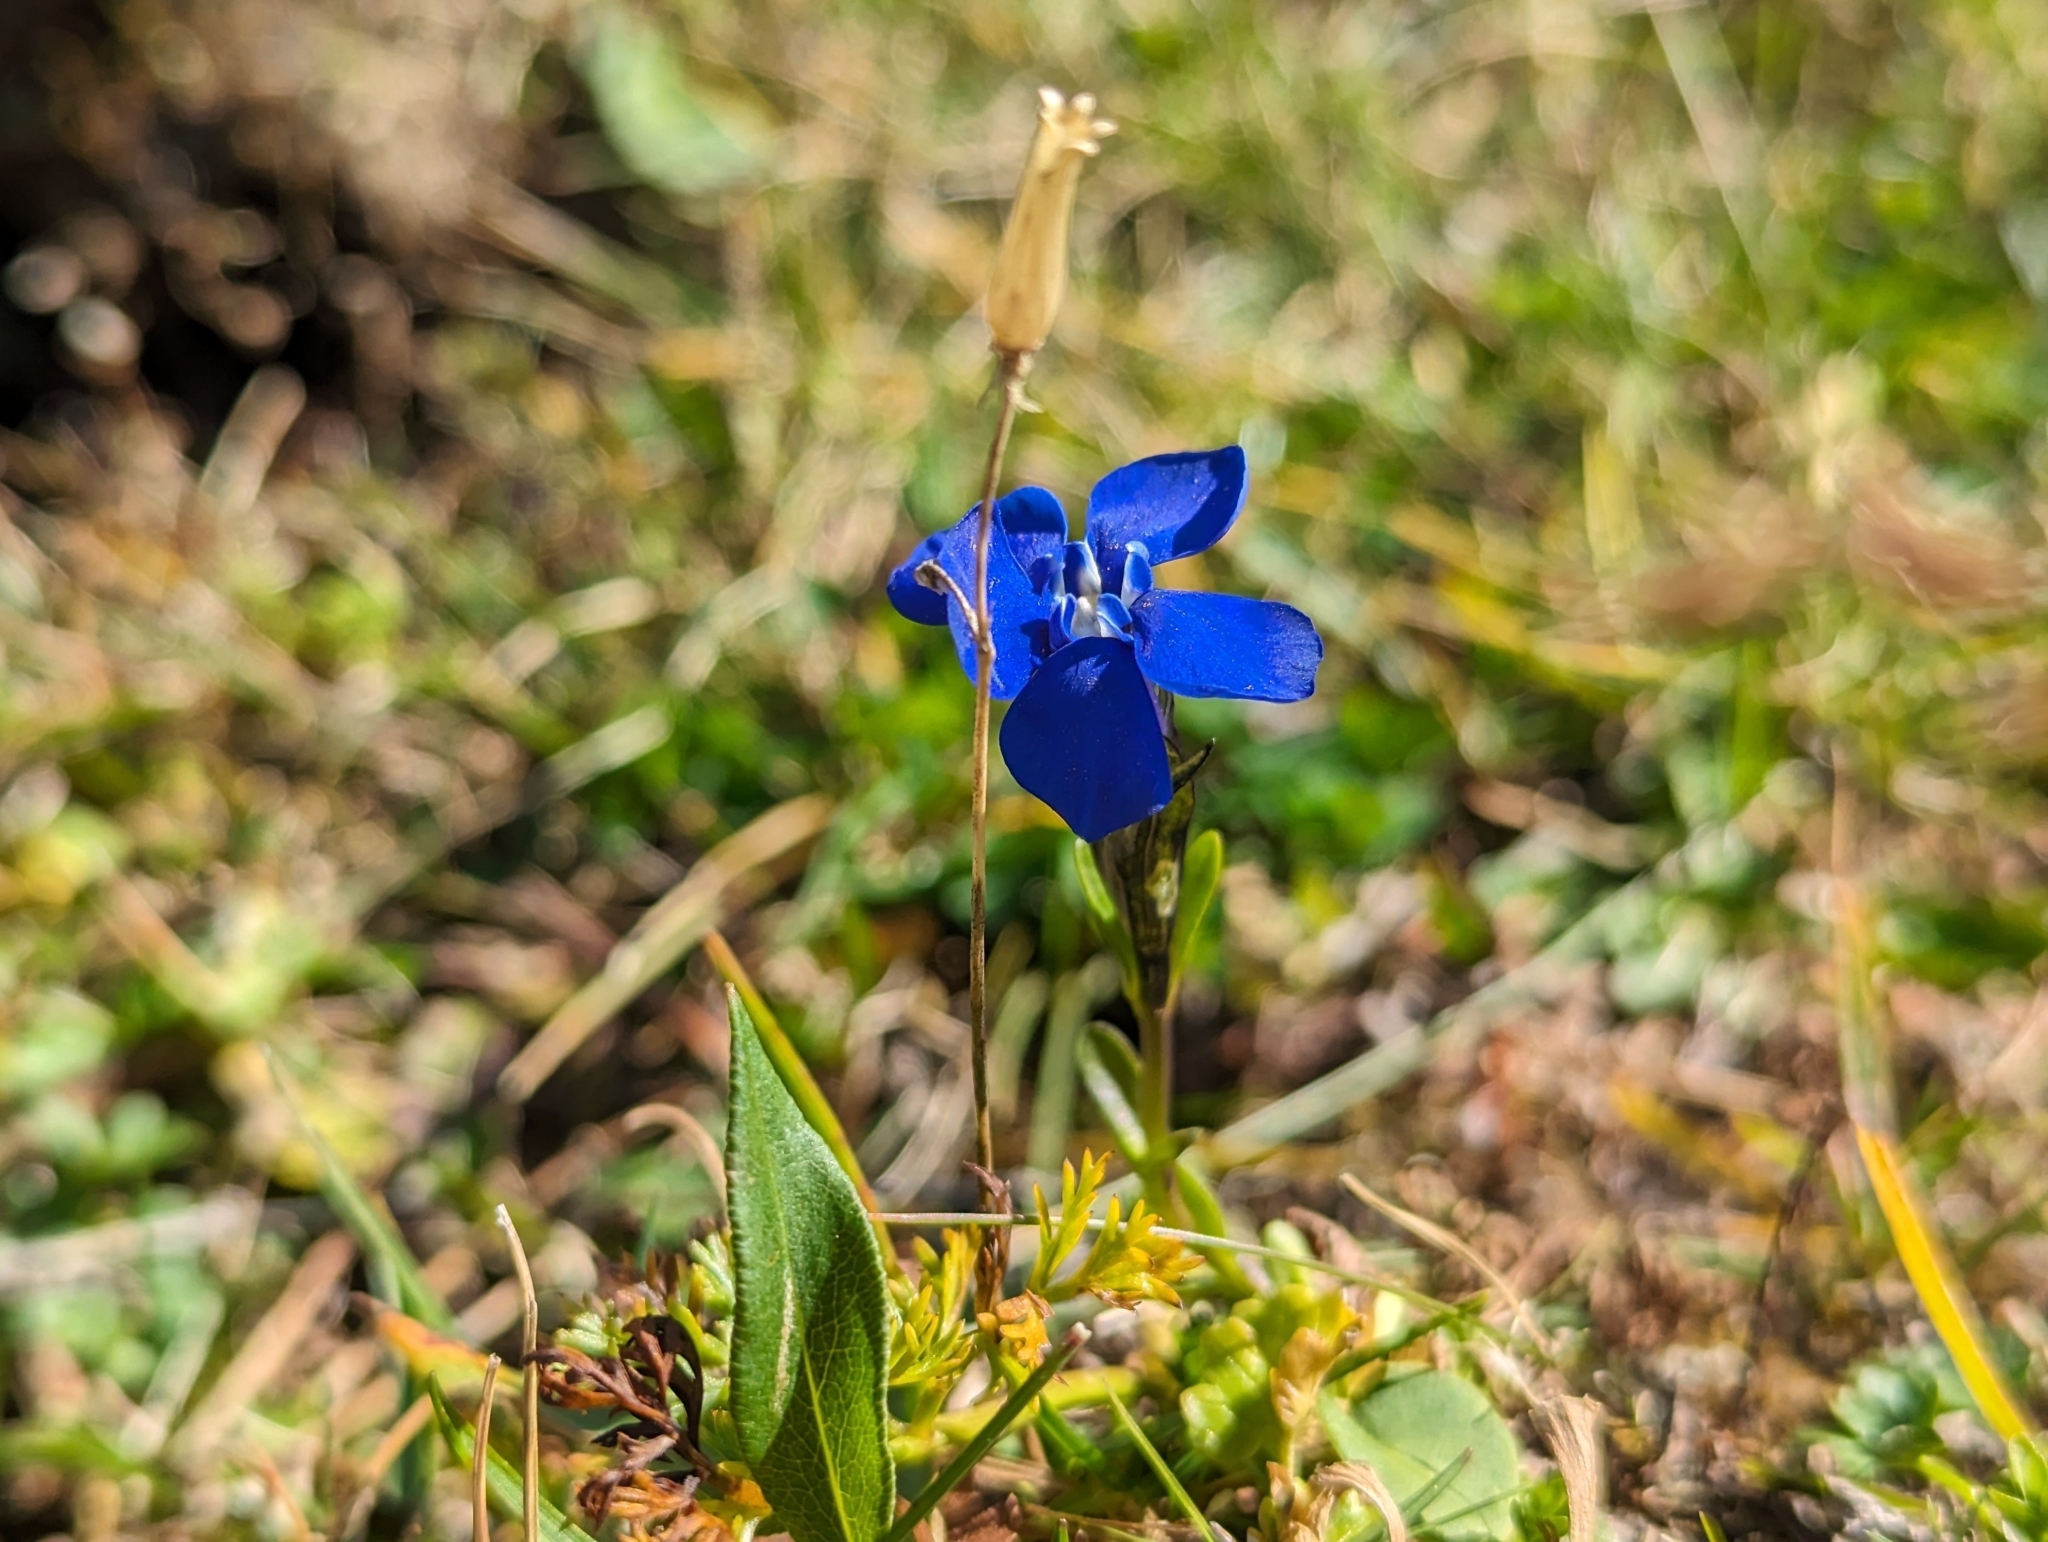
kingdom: Plantae
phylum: Tracheophyta
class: Magnoliopsida
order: Gentianales
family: Gentianaceae
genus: Gentiana
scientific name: Gentiana bavarica
